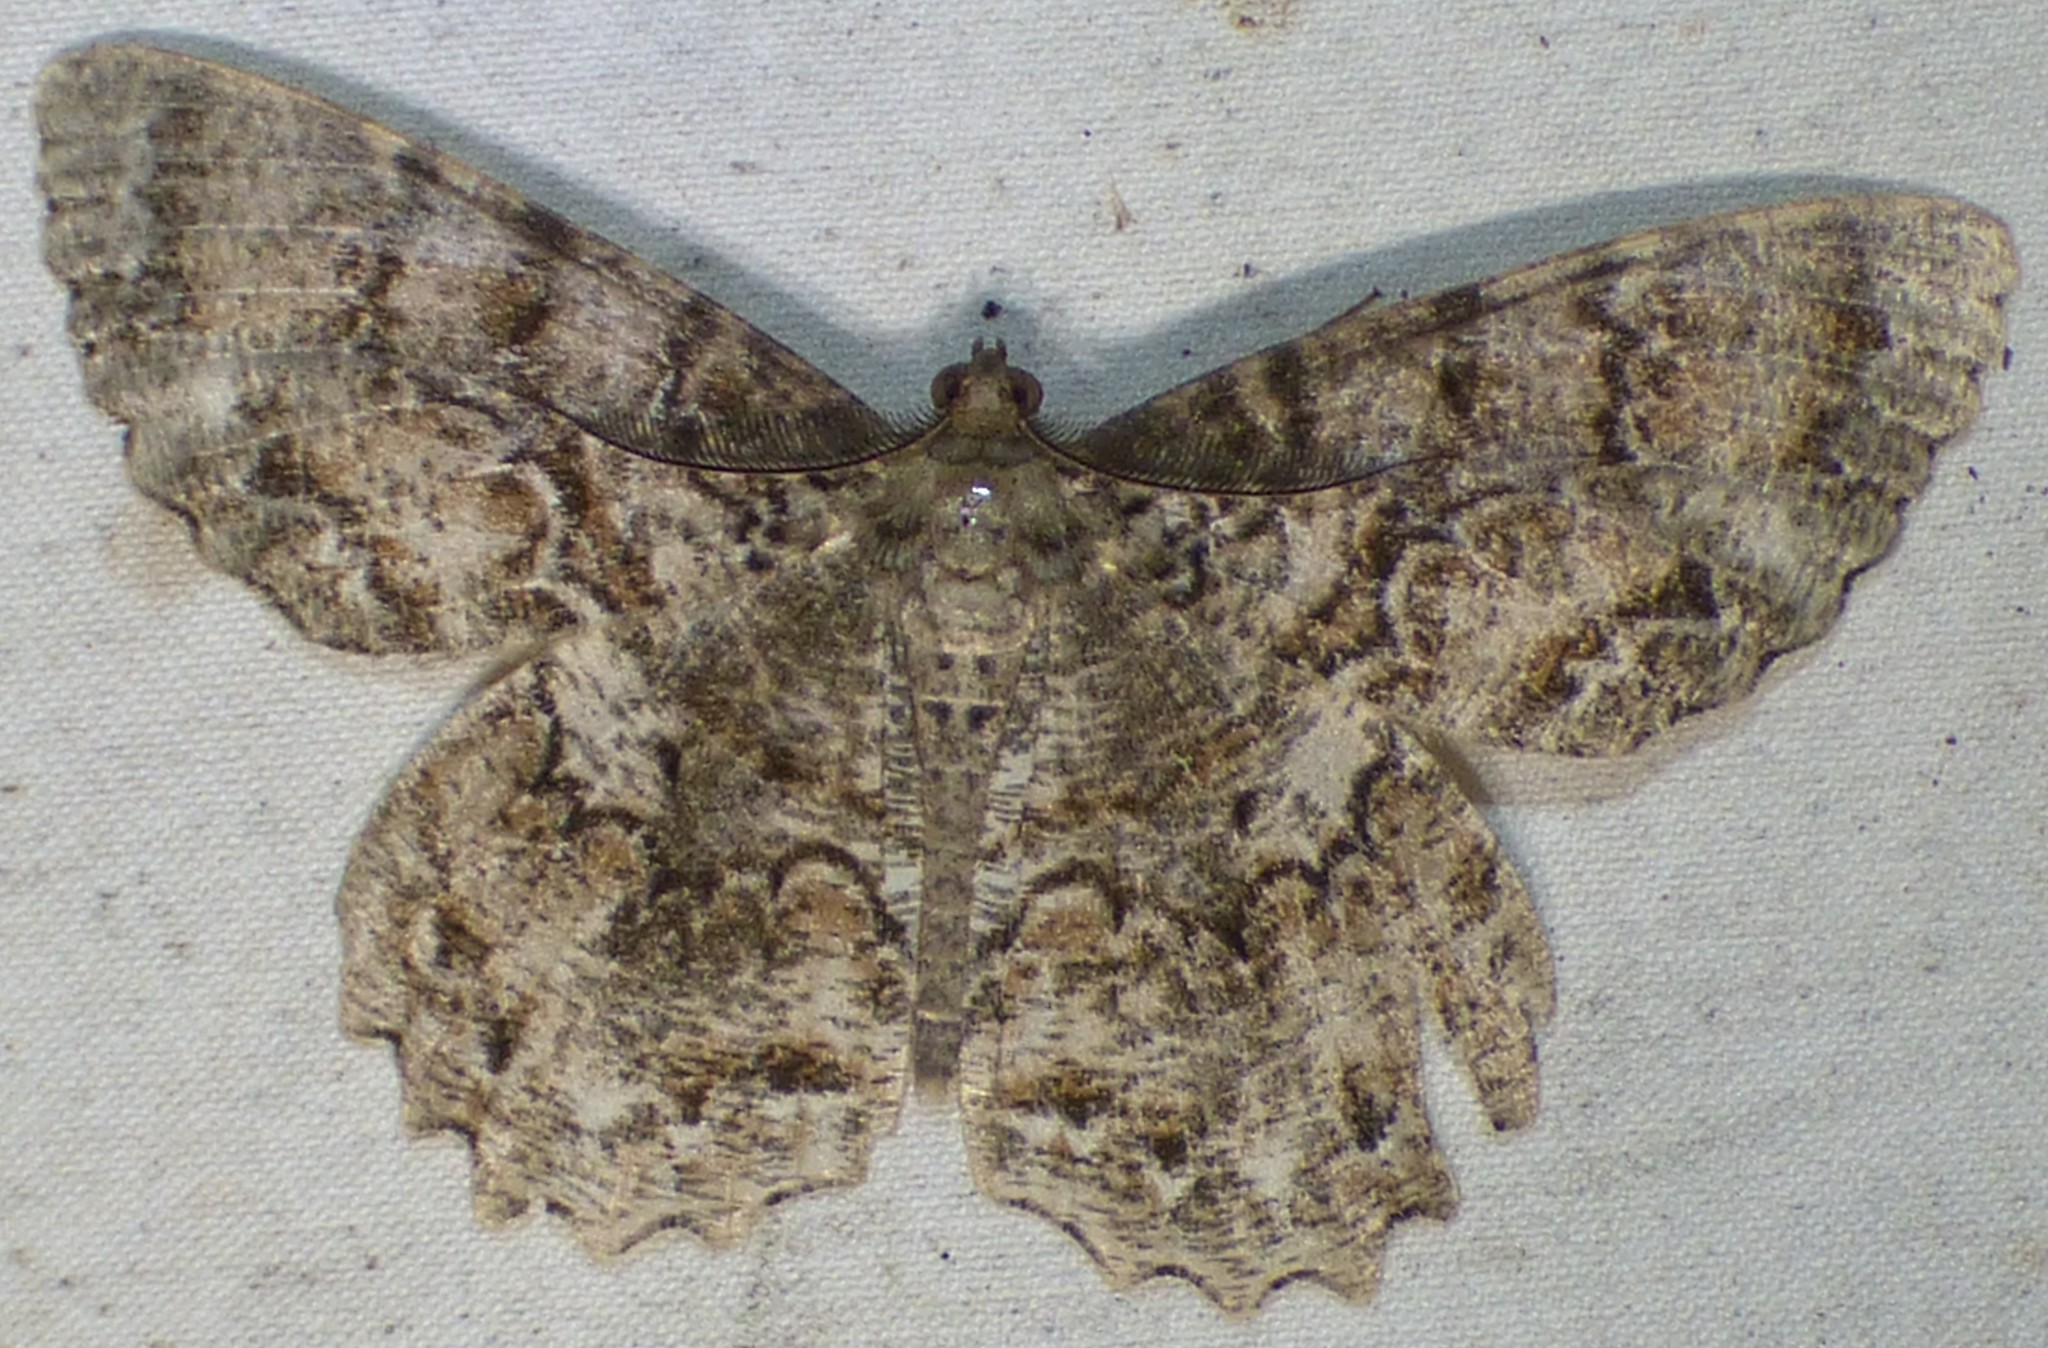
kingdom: Animalia
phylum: Arthropoda
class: Insecta
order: Lepidoptera
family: Geometridae
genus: Epimecis
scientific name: Epimecis hortaria
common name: Tulip-tree beauty
